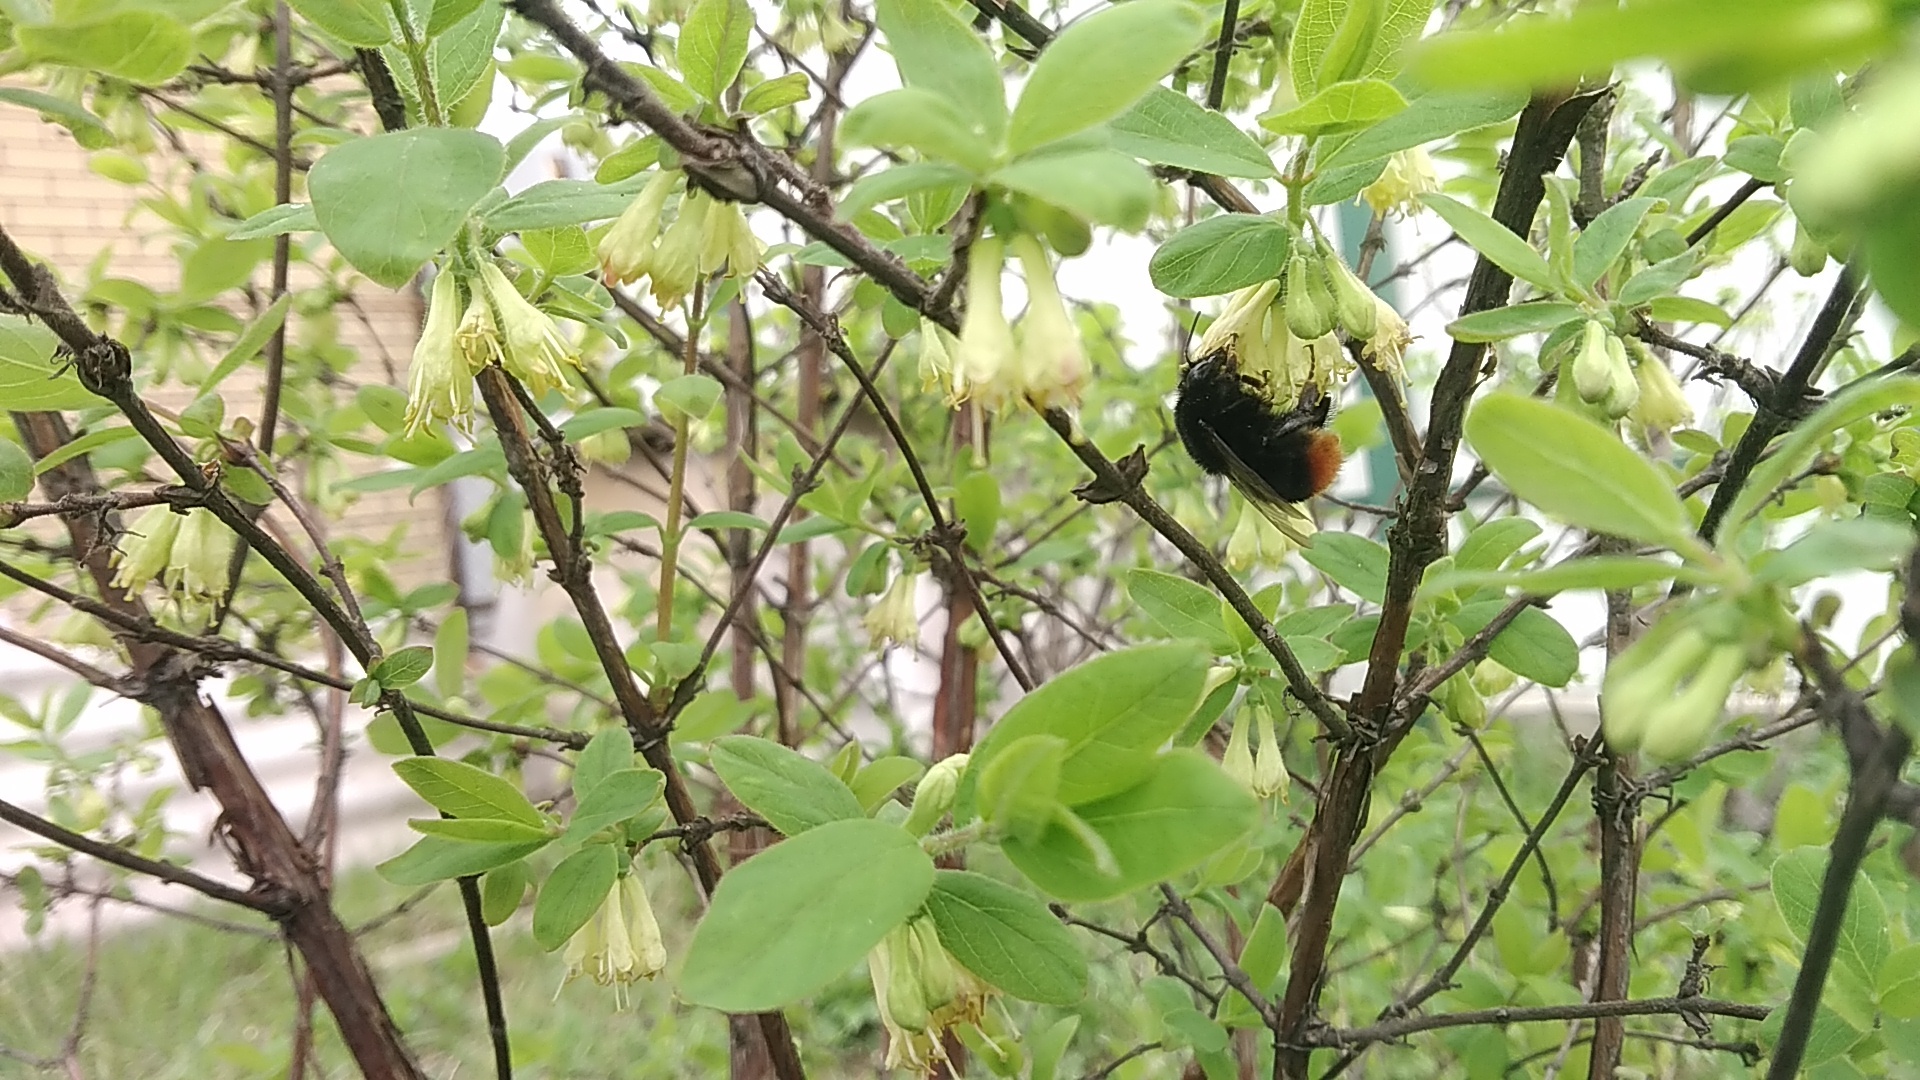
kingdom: Animalia
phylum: Arthropoda
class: Insecta
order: Hymenoptera
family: Apidae
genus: Bombus
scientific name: Bombus lapidarius
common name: Large red-tailed humble-bee
